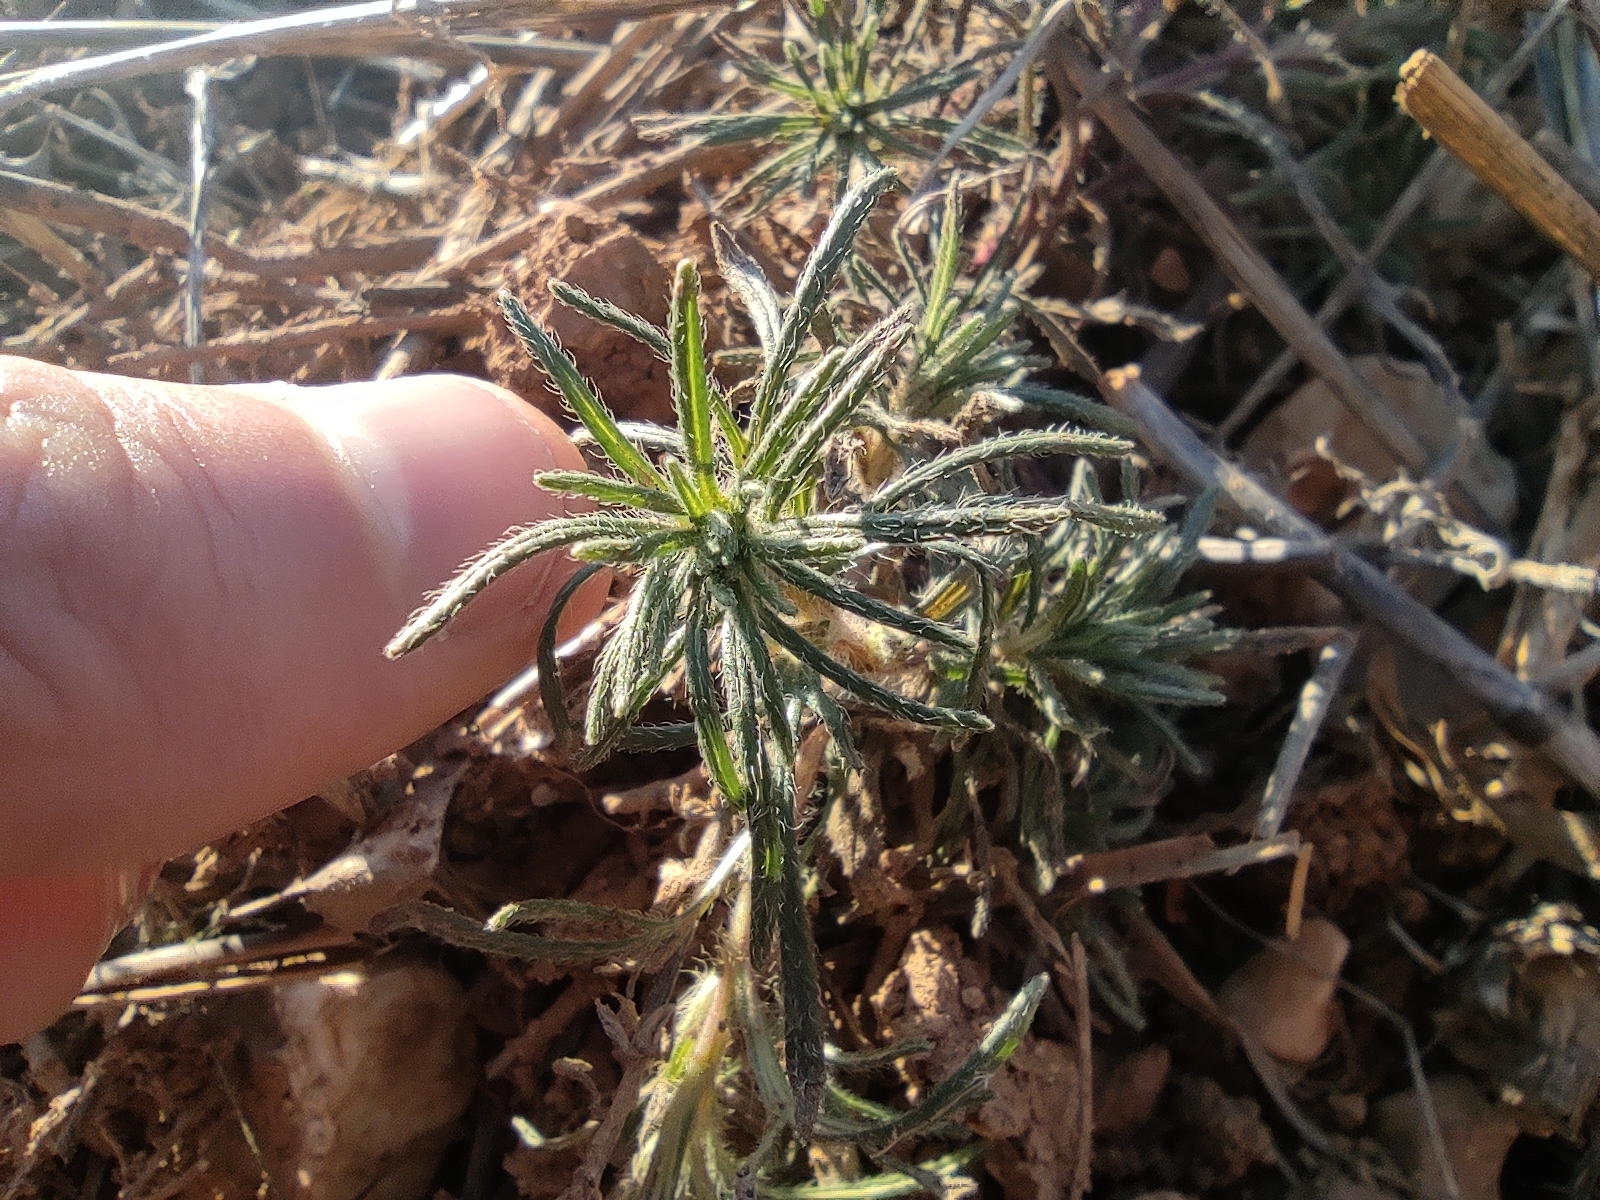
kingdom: Plantae
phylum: Tracheophyta
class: Magnoliopsida
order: Lamiales
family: Lamiaceae
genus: Ajuga
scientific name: Ajuga chamaepitys
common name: Ground-pine
